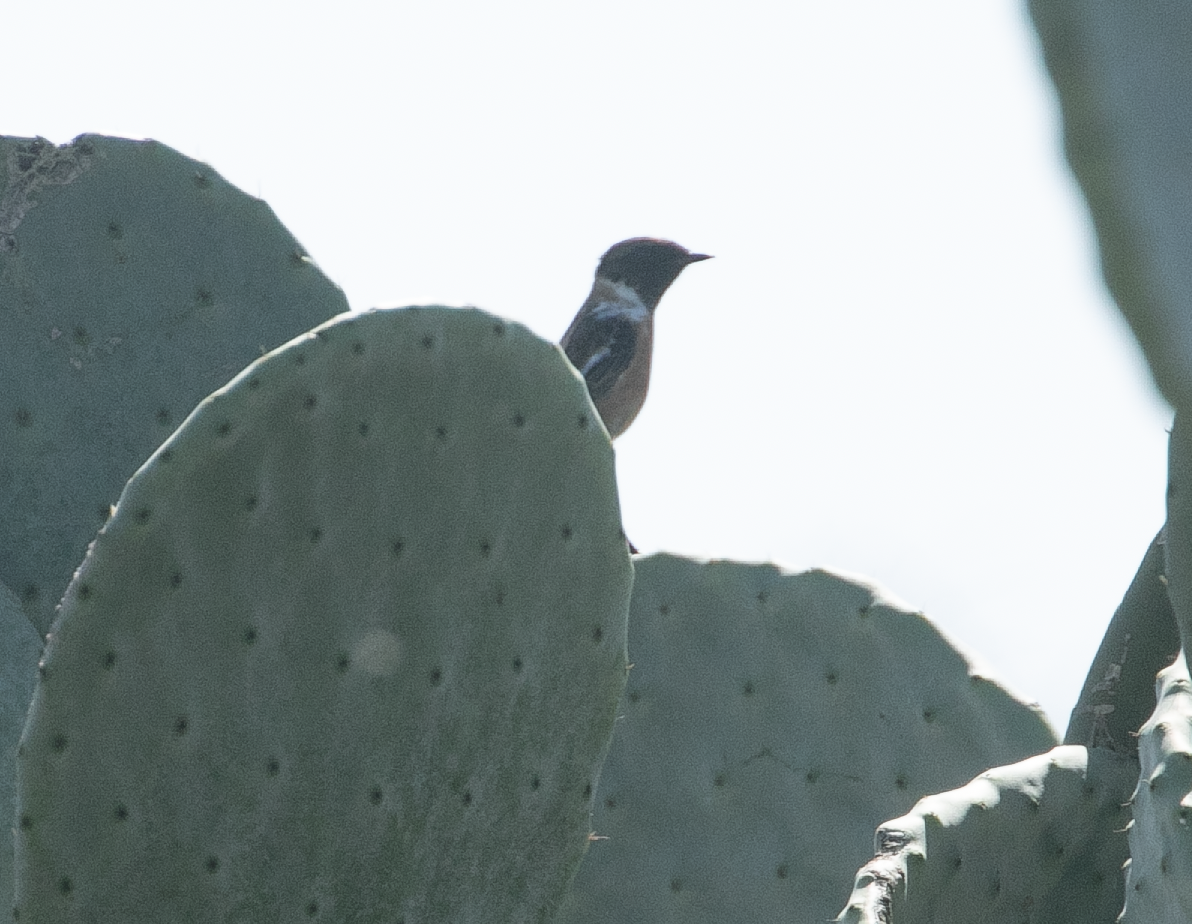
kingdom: Animalia
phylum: Chordata
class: Aves
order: Passeriformes
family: Muscicapidae
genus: Saxicola
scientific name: Saxicola rubicola
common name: European stonechat
